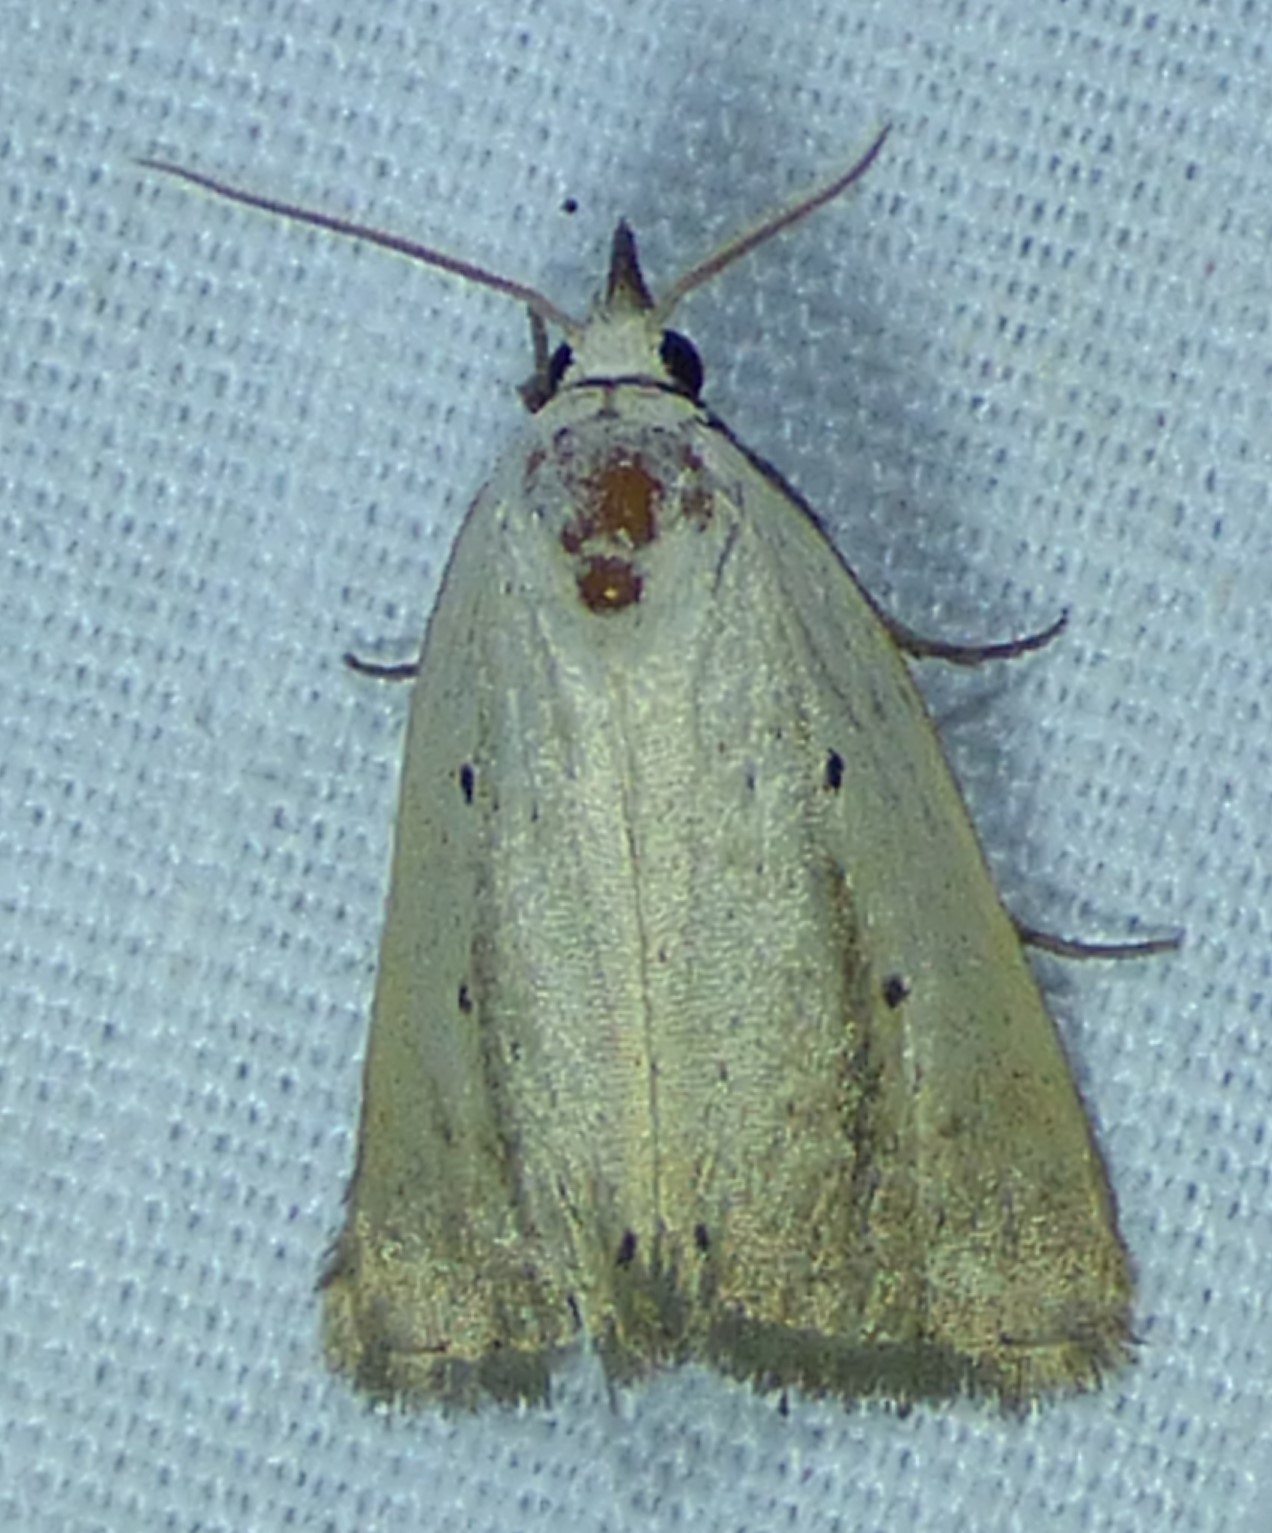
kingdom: Animalia
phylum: Arthropoda
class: Insecta
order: Lepidoptera
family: Noctuidae
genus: Marimatha
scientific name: Marimatha nigrofimbria
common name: Black-bordered lemon moth
